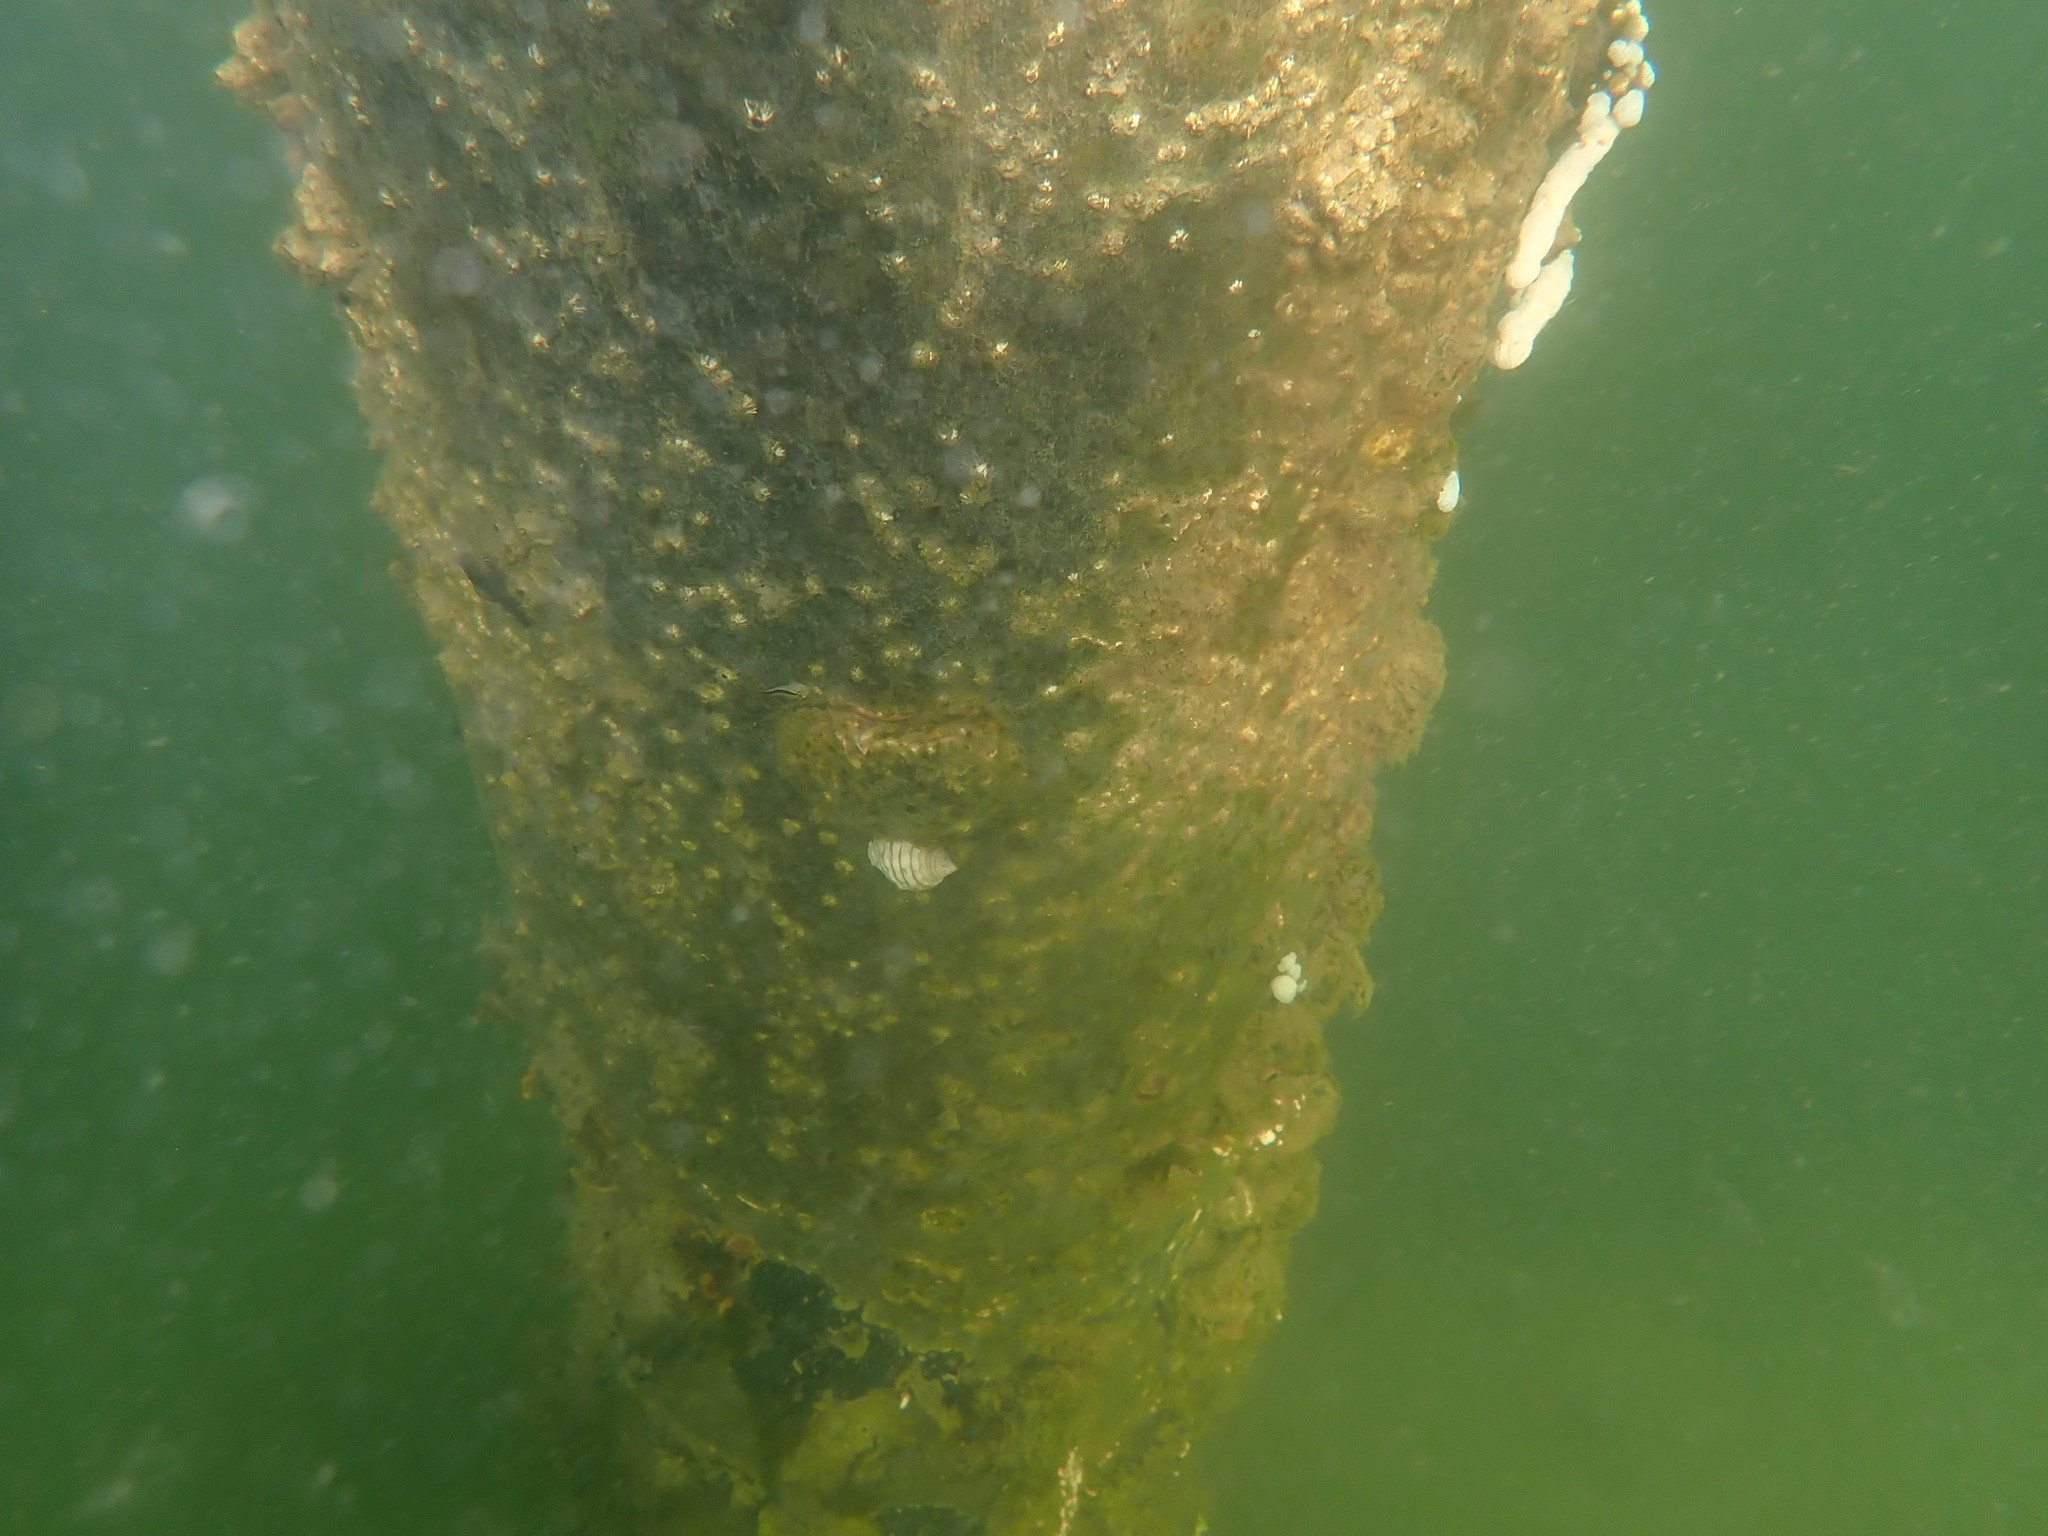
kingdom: Animalia
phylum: Mollusca
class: Gastropoda
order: Neogastropoda
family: Muricidae
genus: Dicathais
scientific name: Dicathais orbita
